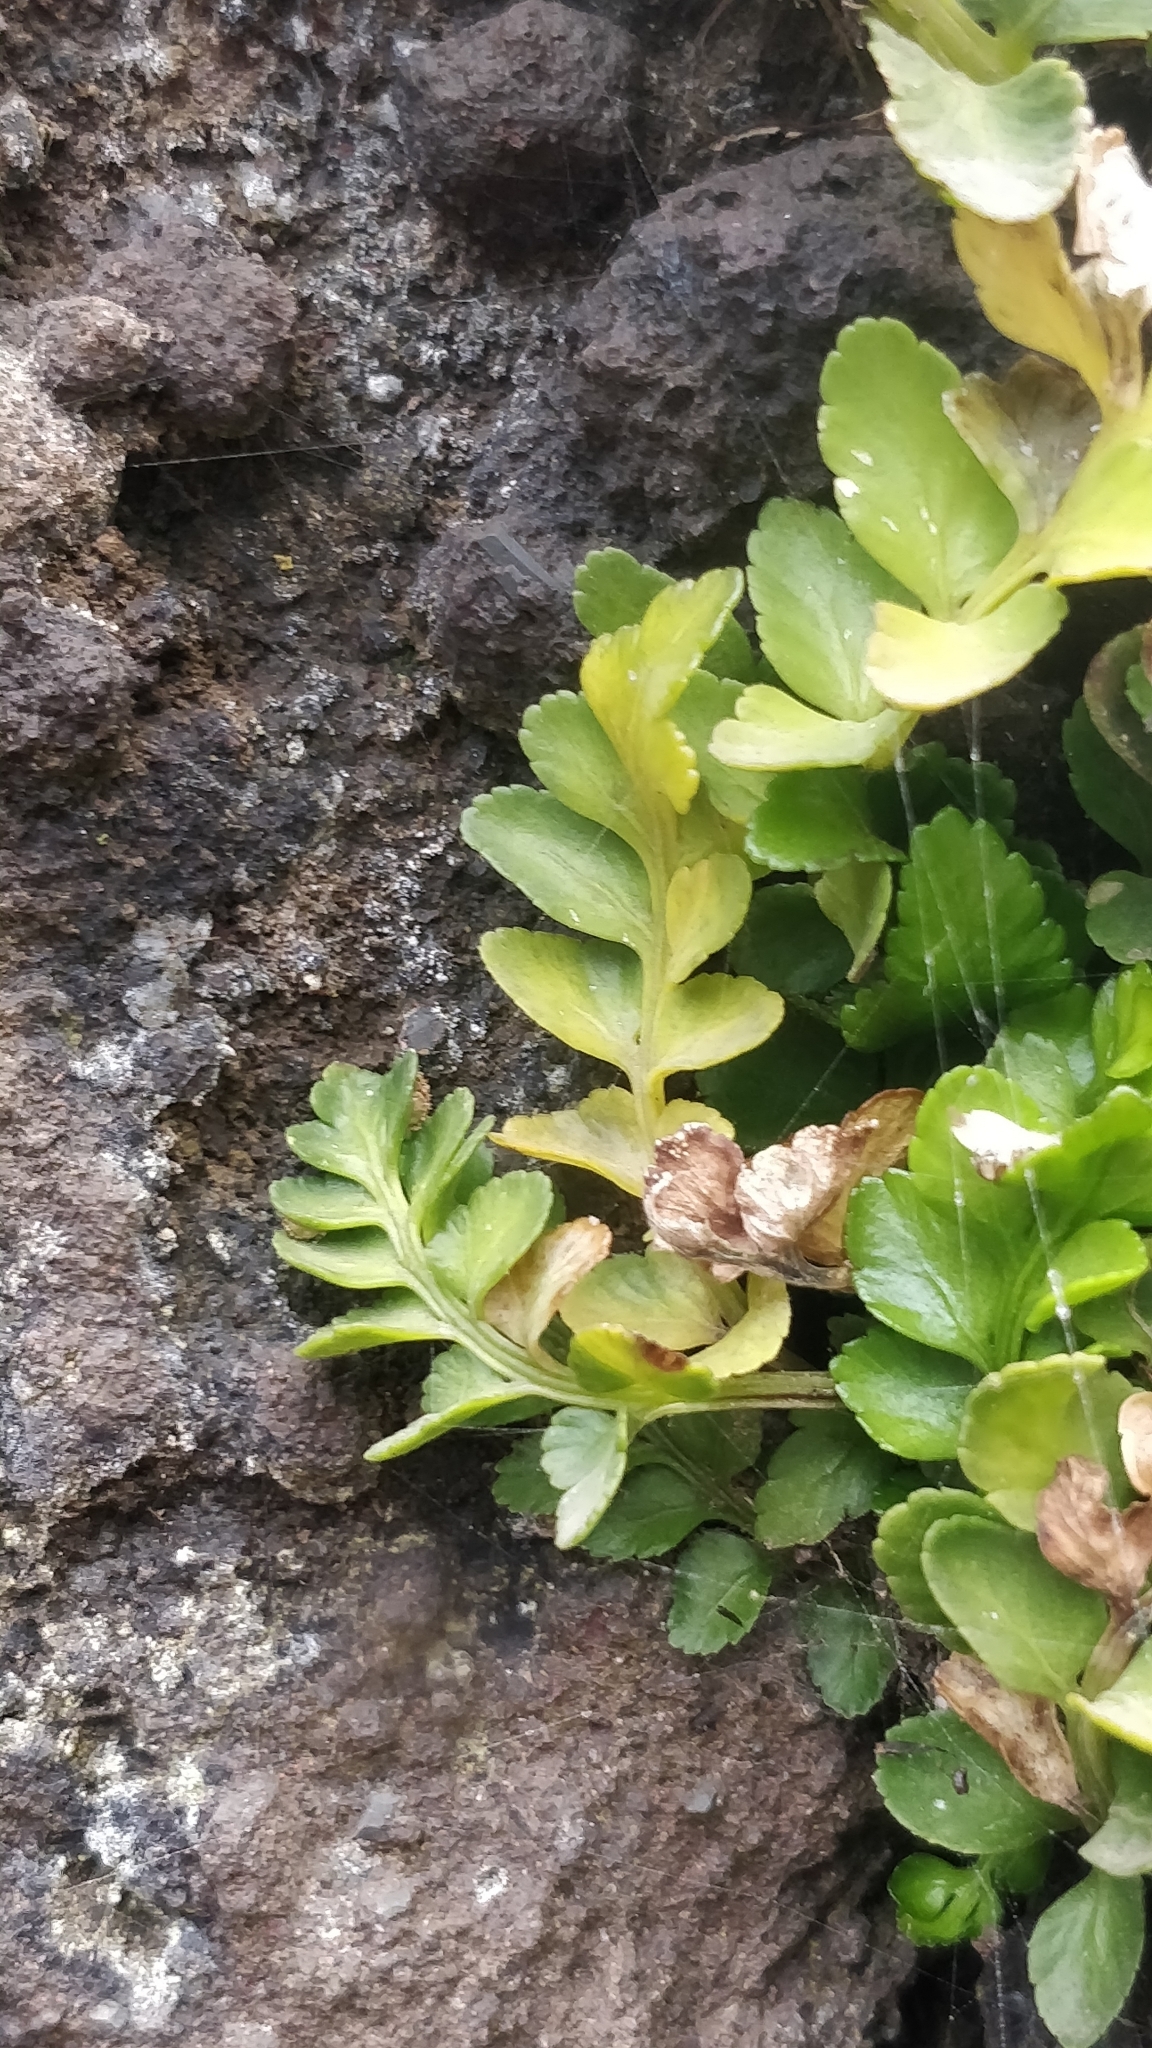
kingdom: Plantae
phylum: Tracheophyta
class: Polypodiopsida
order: Polypodiales
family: Aspleniaceae
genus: Asplenium
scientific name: Asplenium marinum
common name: Sea spleenwort
